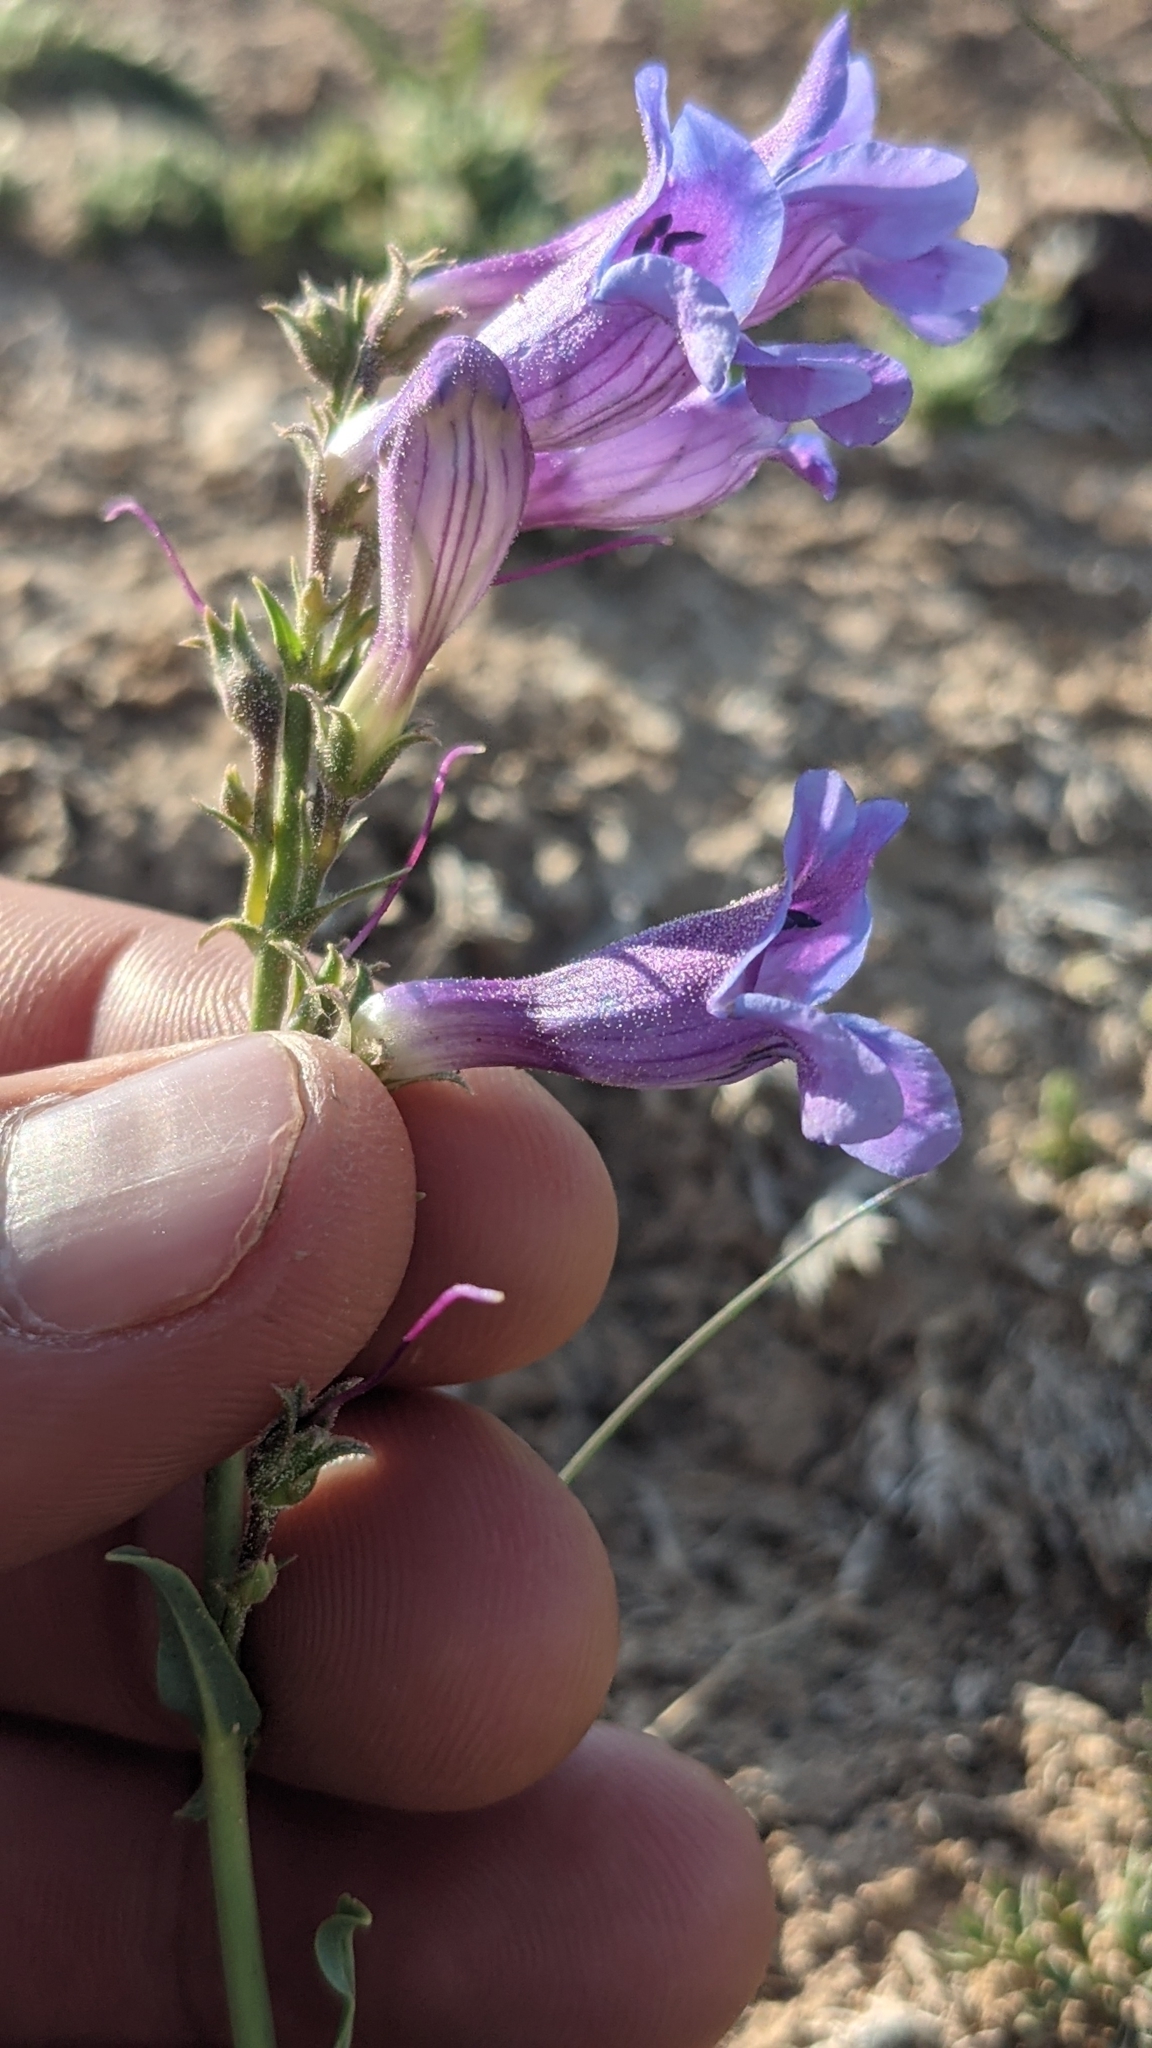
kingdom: Plantae
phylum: Tracheophyta
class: Magnoliopsida
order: Lamiales
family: Plantaginaceae
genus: Penstemon
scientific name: Penstemon leiophyllus
